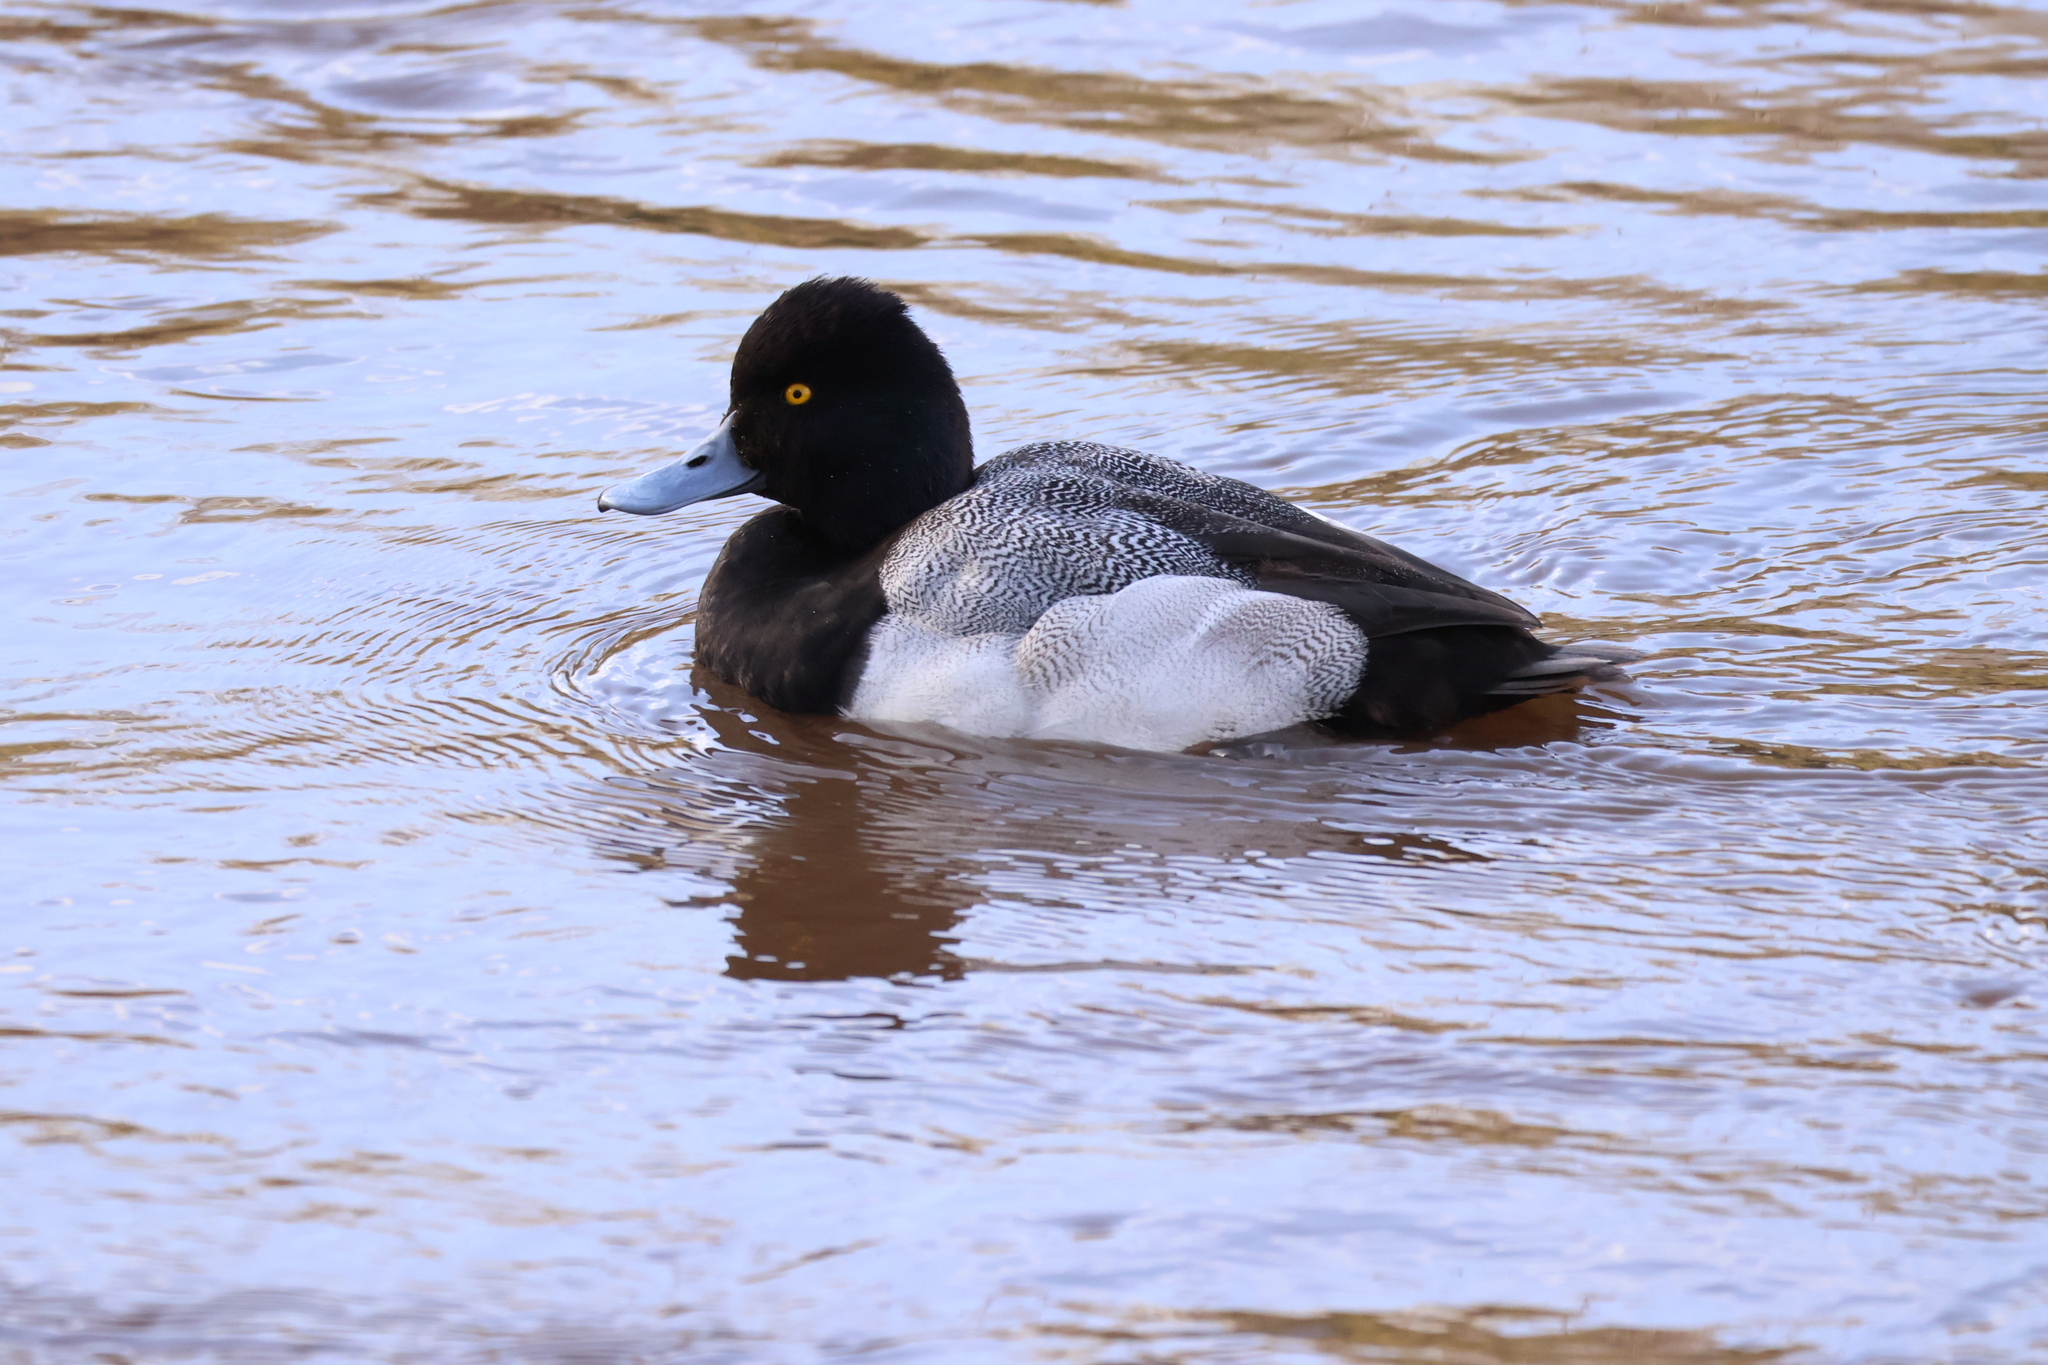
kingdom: Animalia
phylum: Chordata
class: Aves
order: Anseriformes
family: Anatidae
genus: Aythya
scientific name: Aythya affinis
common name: Lesser scaup
